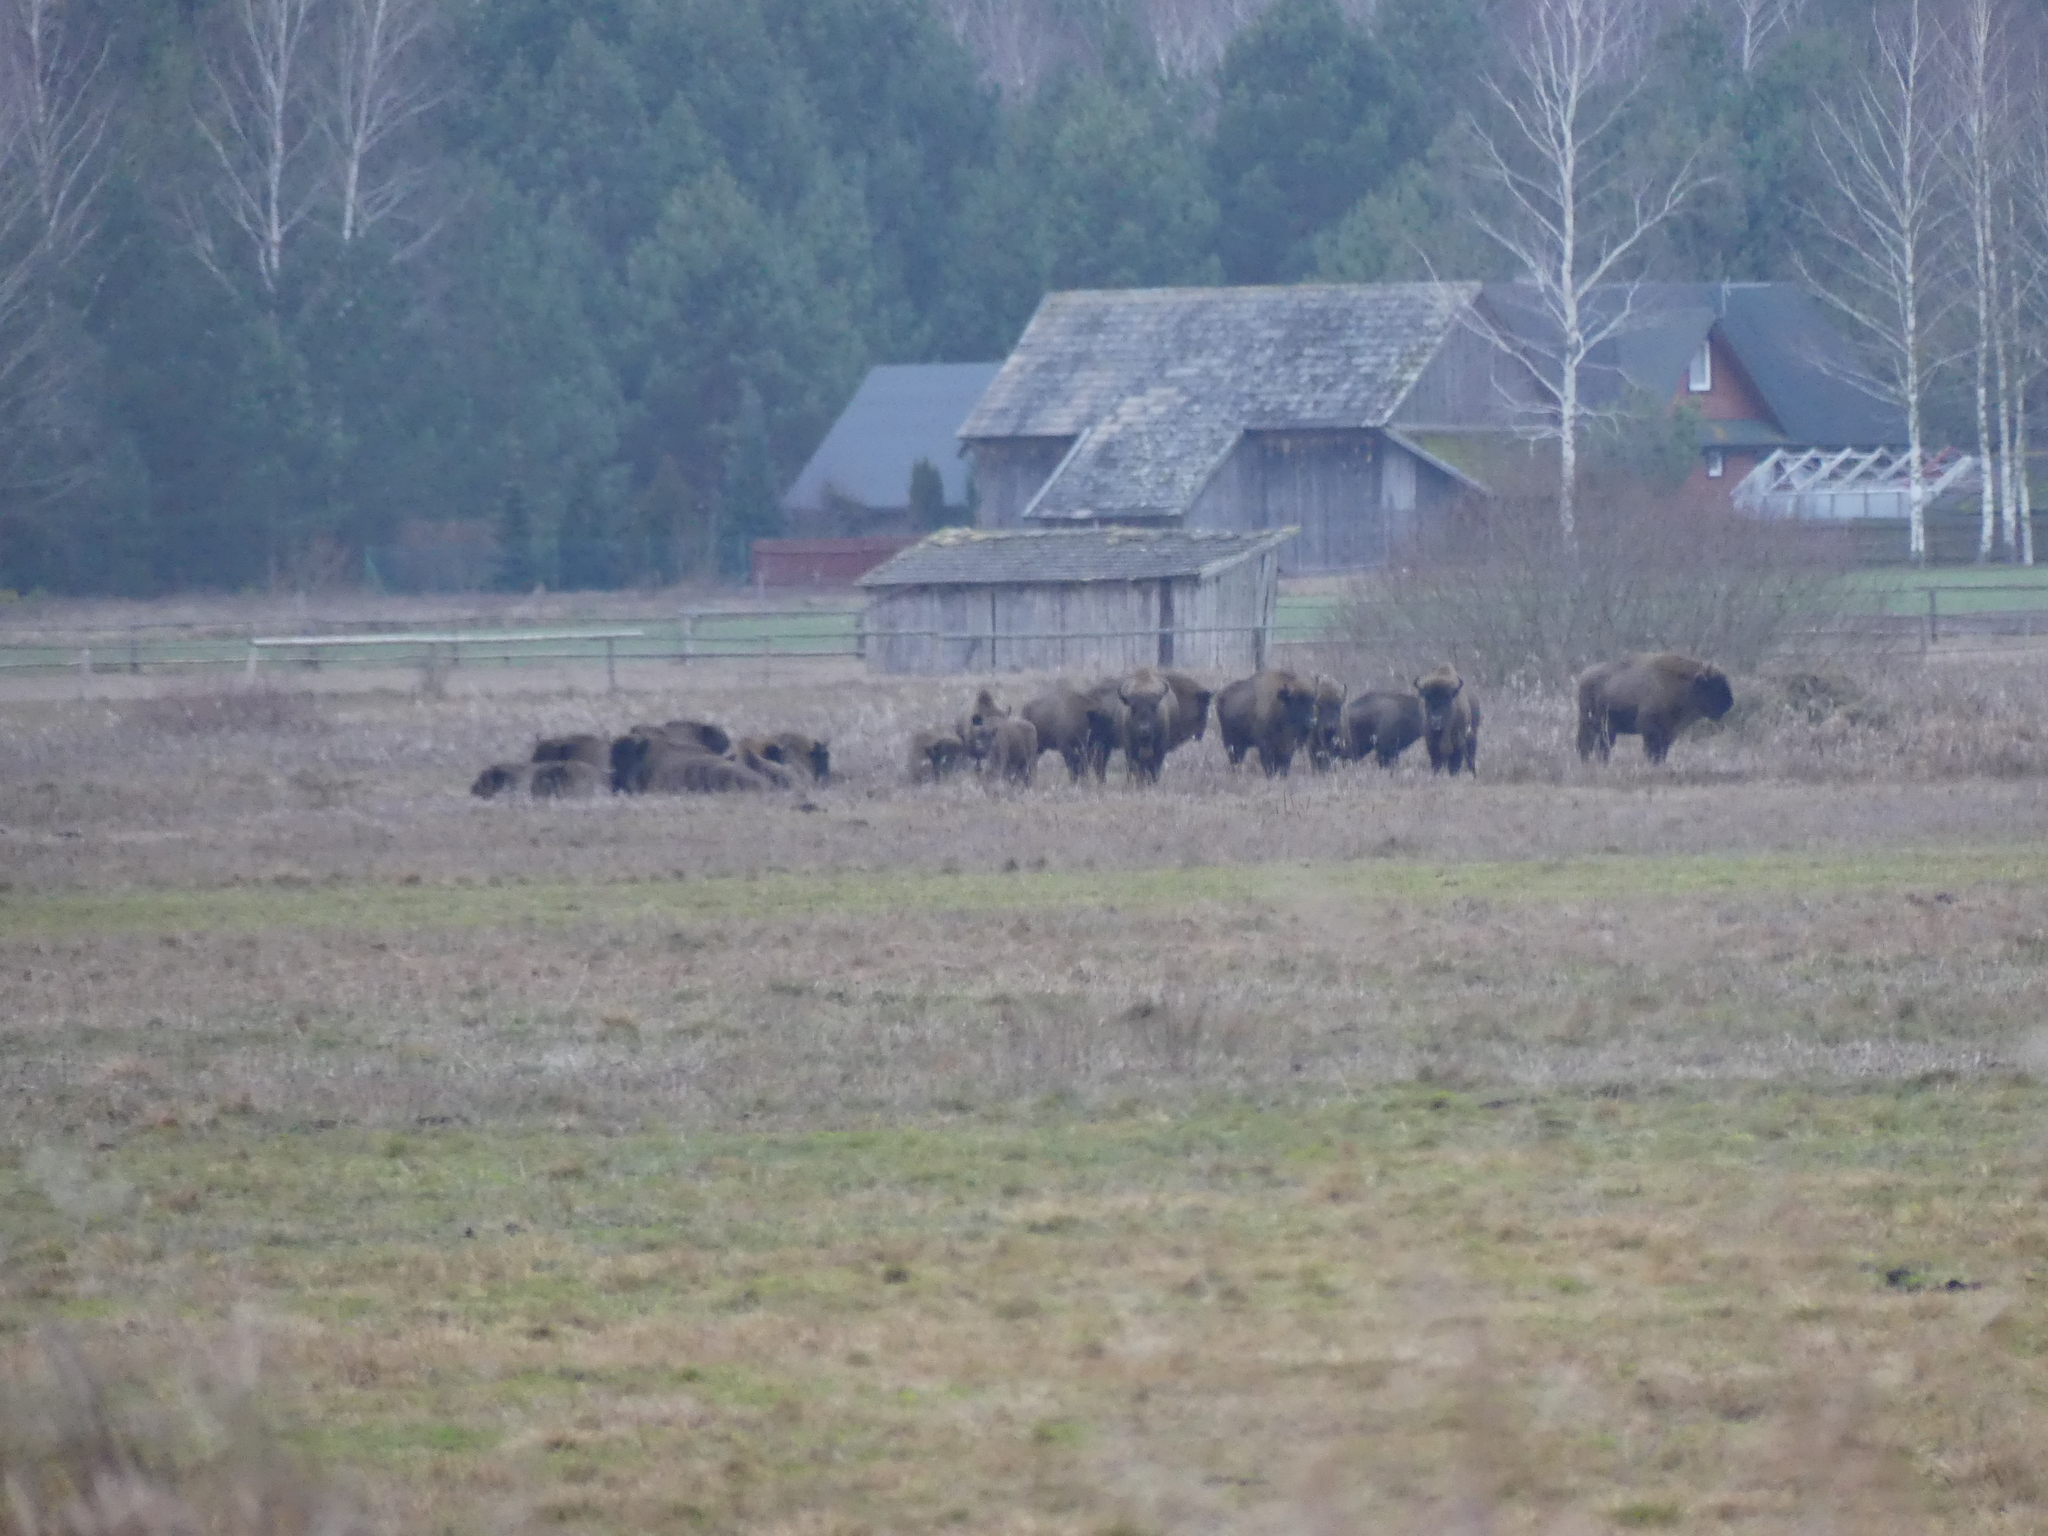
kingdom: Animalia
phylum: Chordata
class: Mammalia
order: Artiodactyla
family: Bovidae
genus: Bison
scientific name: Bison bonasus
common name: European bison
